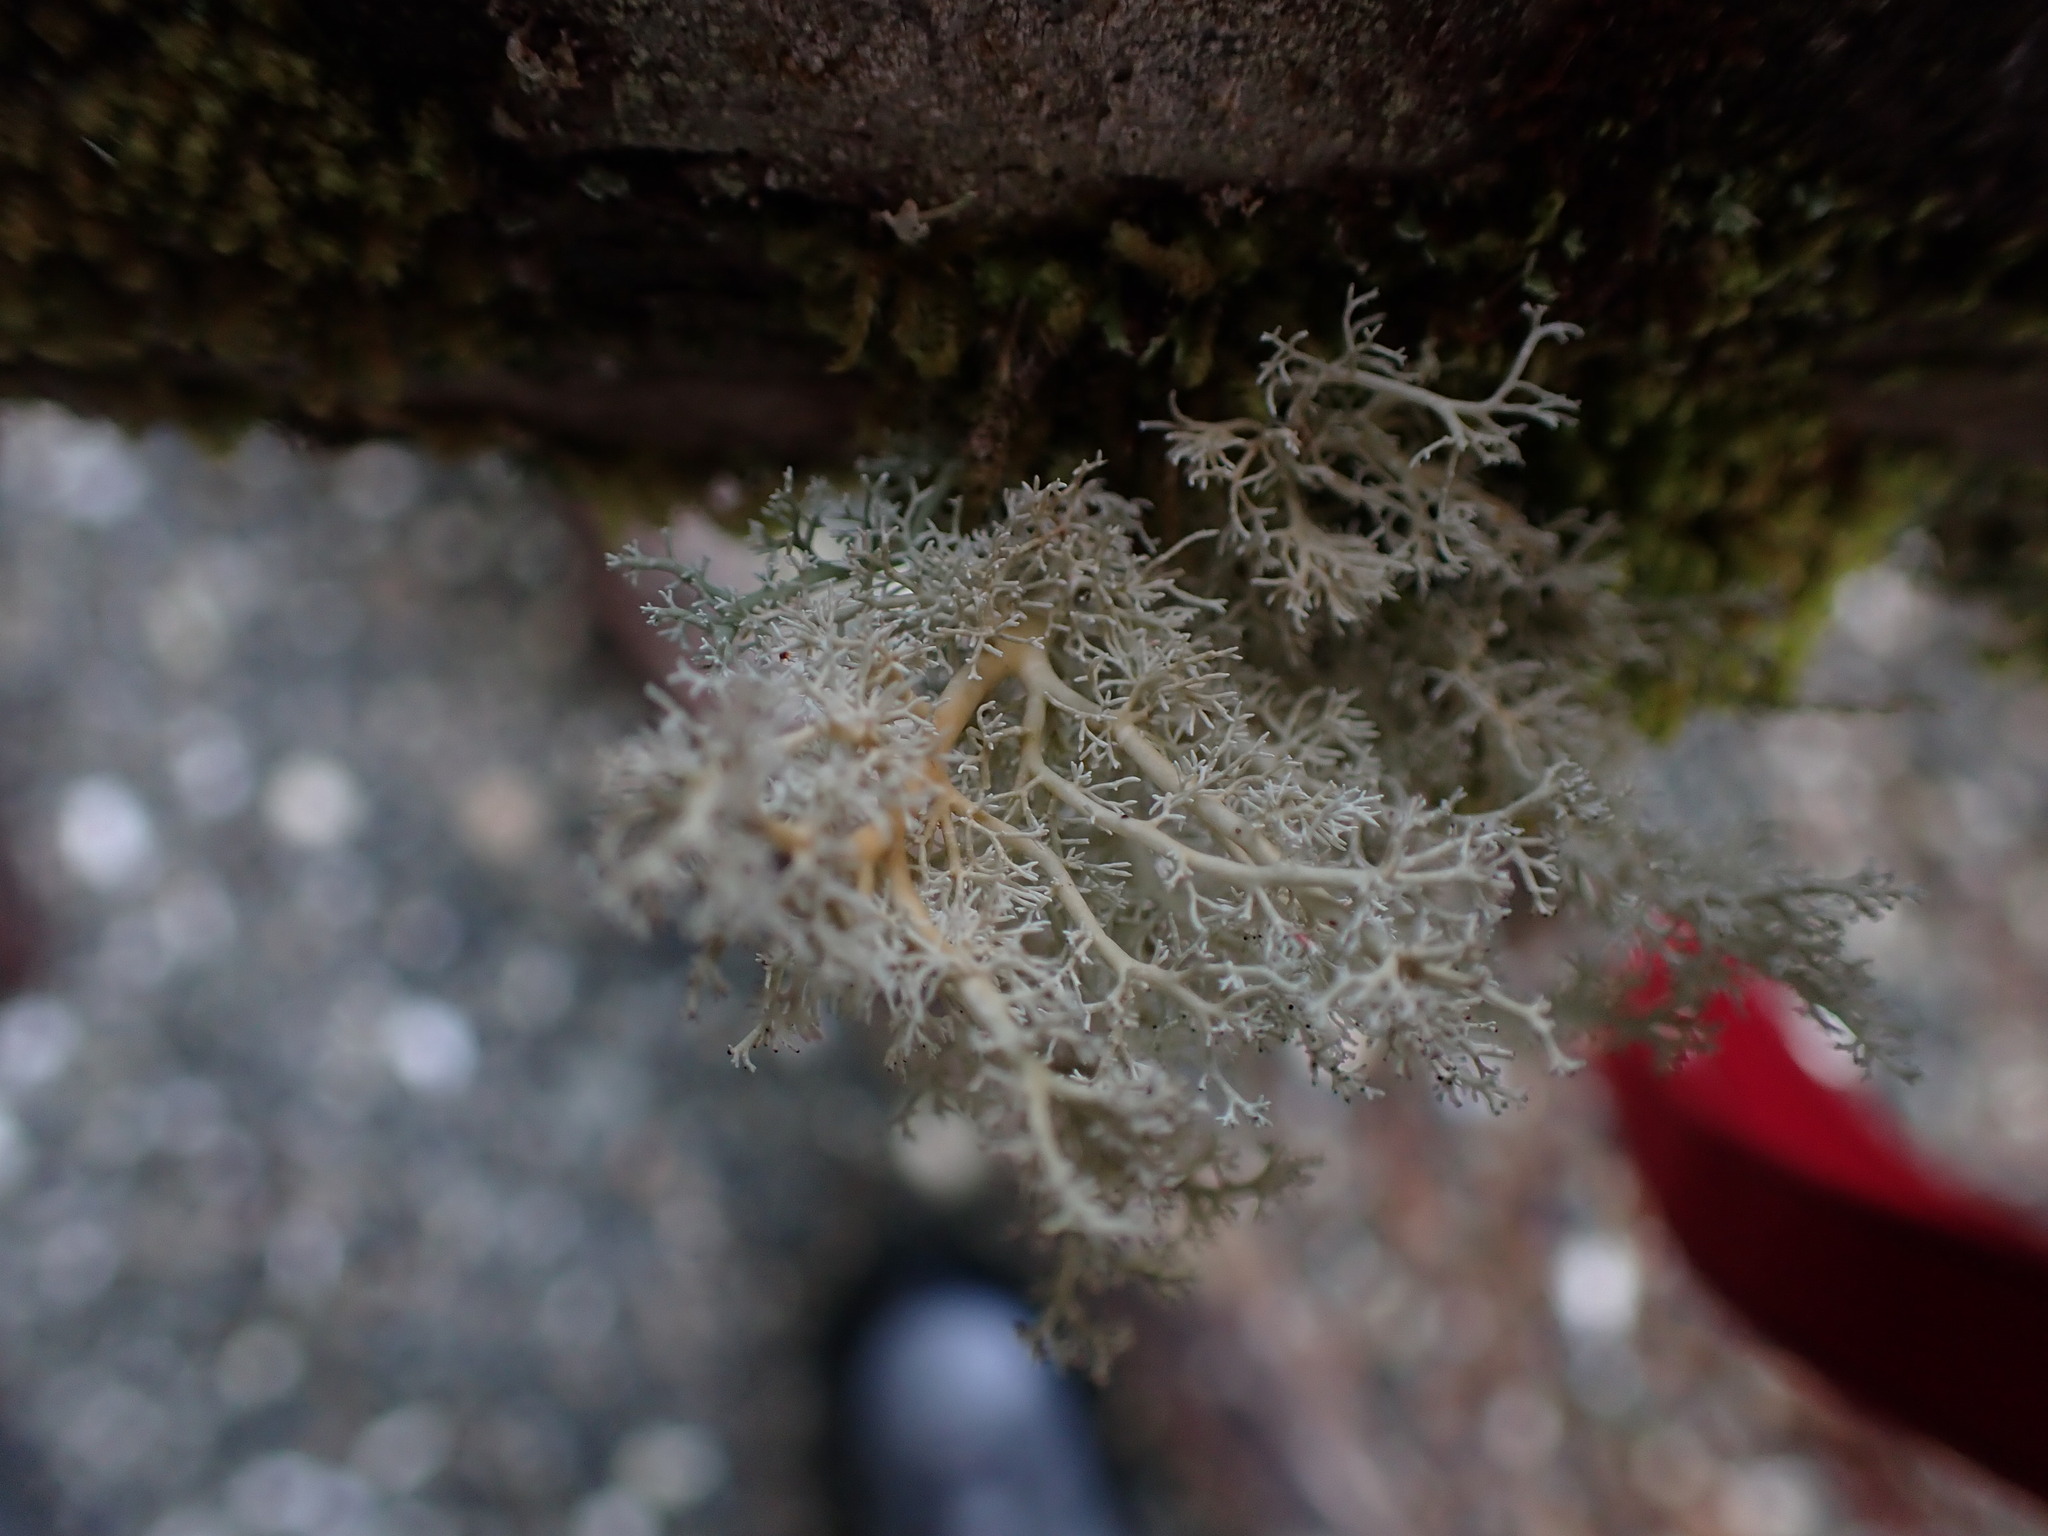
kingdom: Fungi
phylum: Ascomycota
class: Lecanoromycetes
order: Lecanorales
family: Sphaerophoraceae
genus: Sphaerophorus
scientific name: Sphaerophorus globosus
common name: Globe ball lichen
